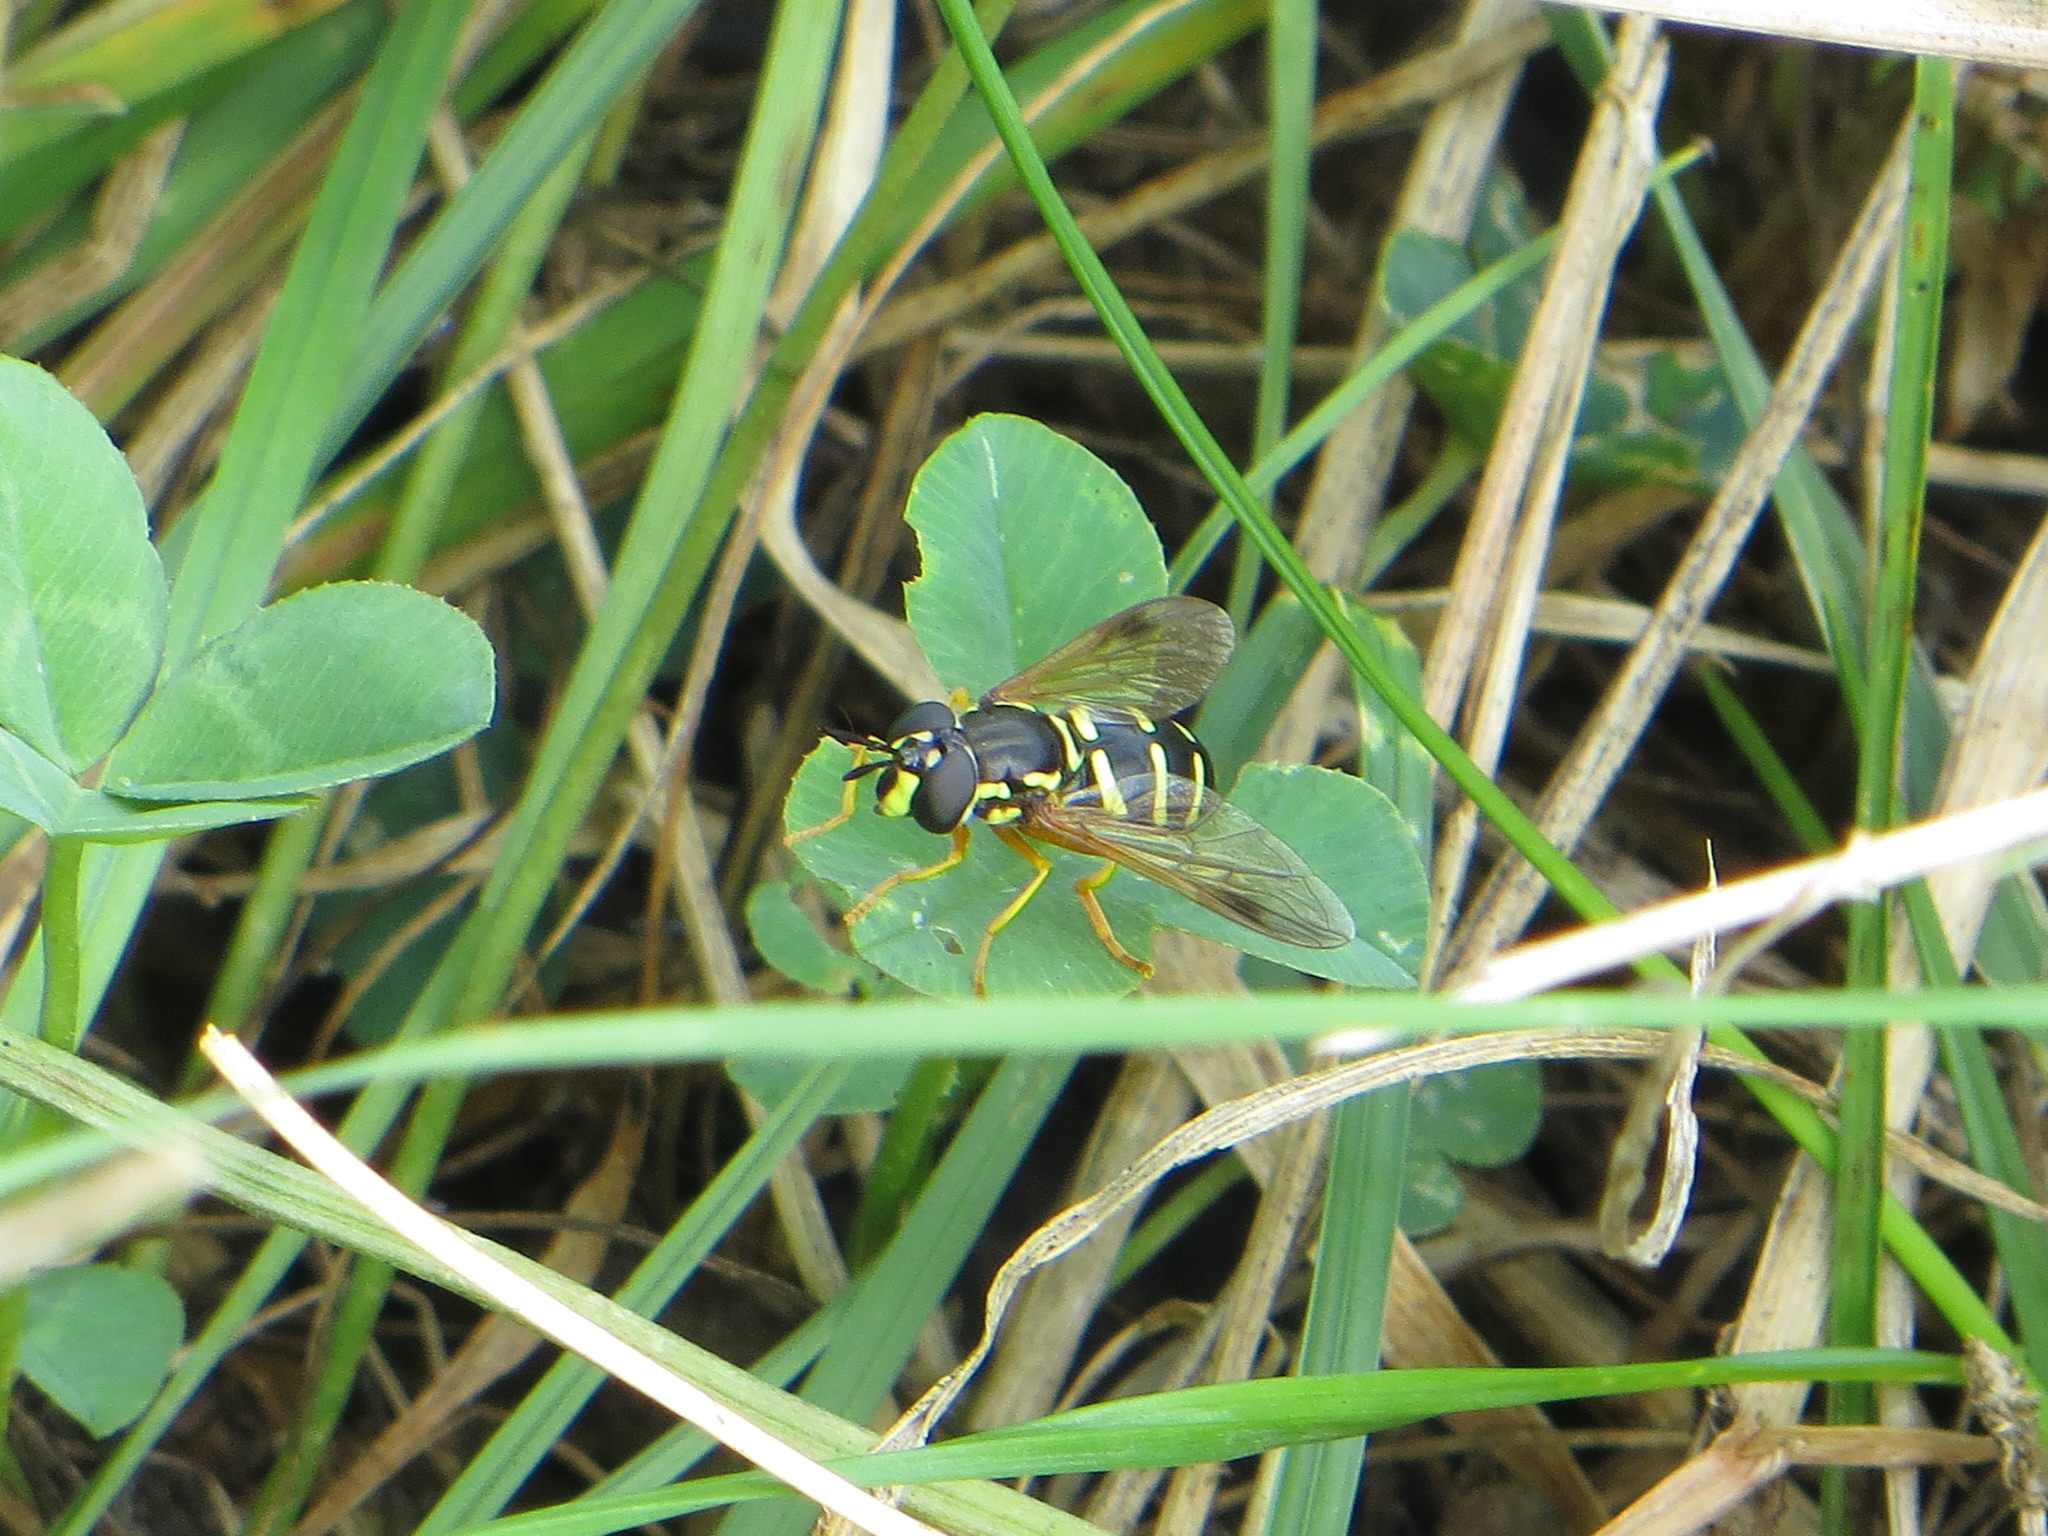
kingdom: Animalia
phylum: Arthropoda
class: Insecta
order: Diptera
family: Syrphidae
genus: Chrysotoxum
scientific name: Chrysotoxum festivum
